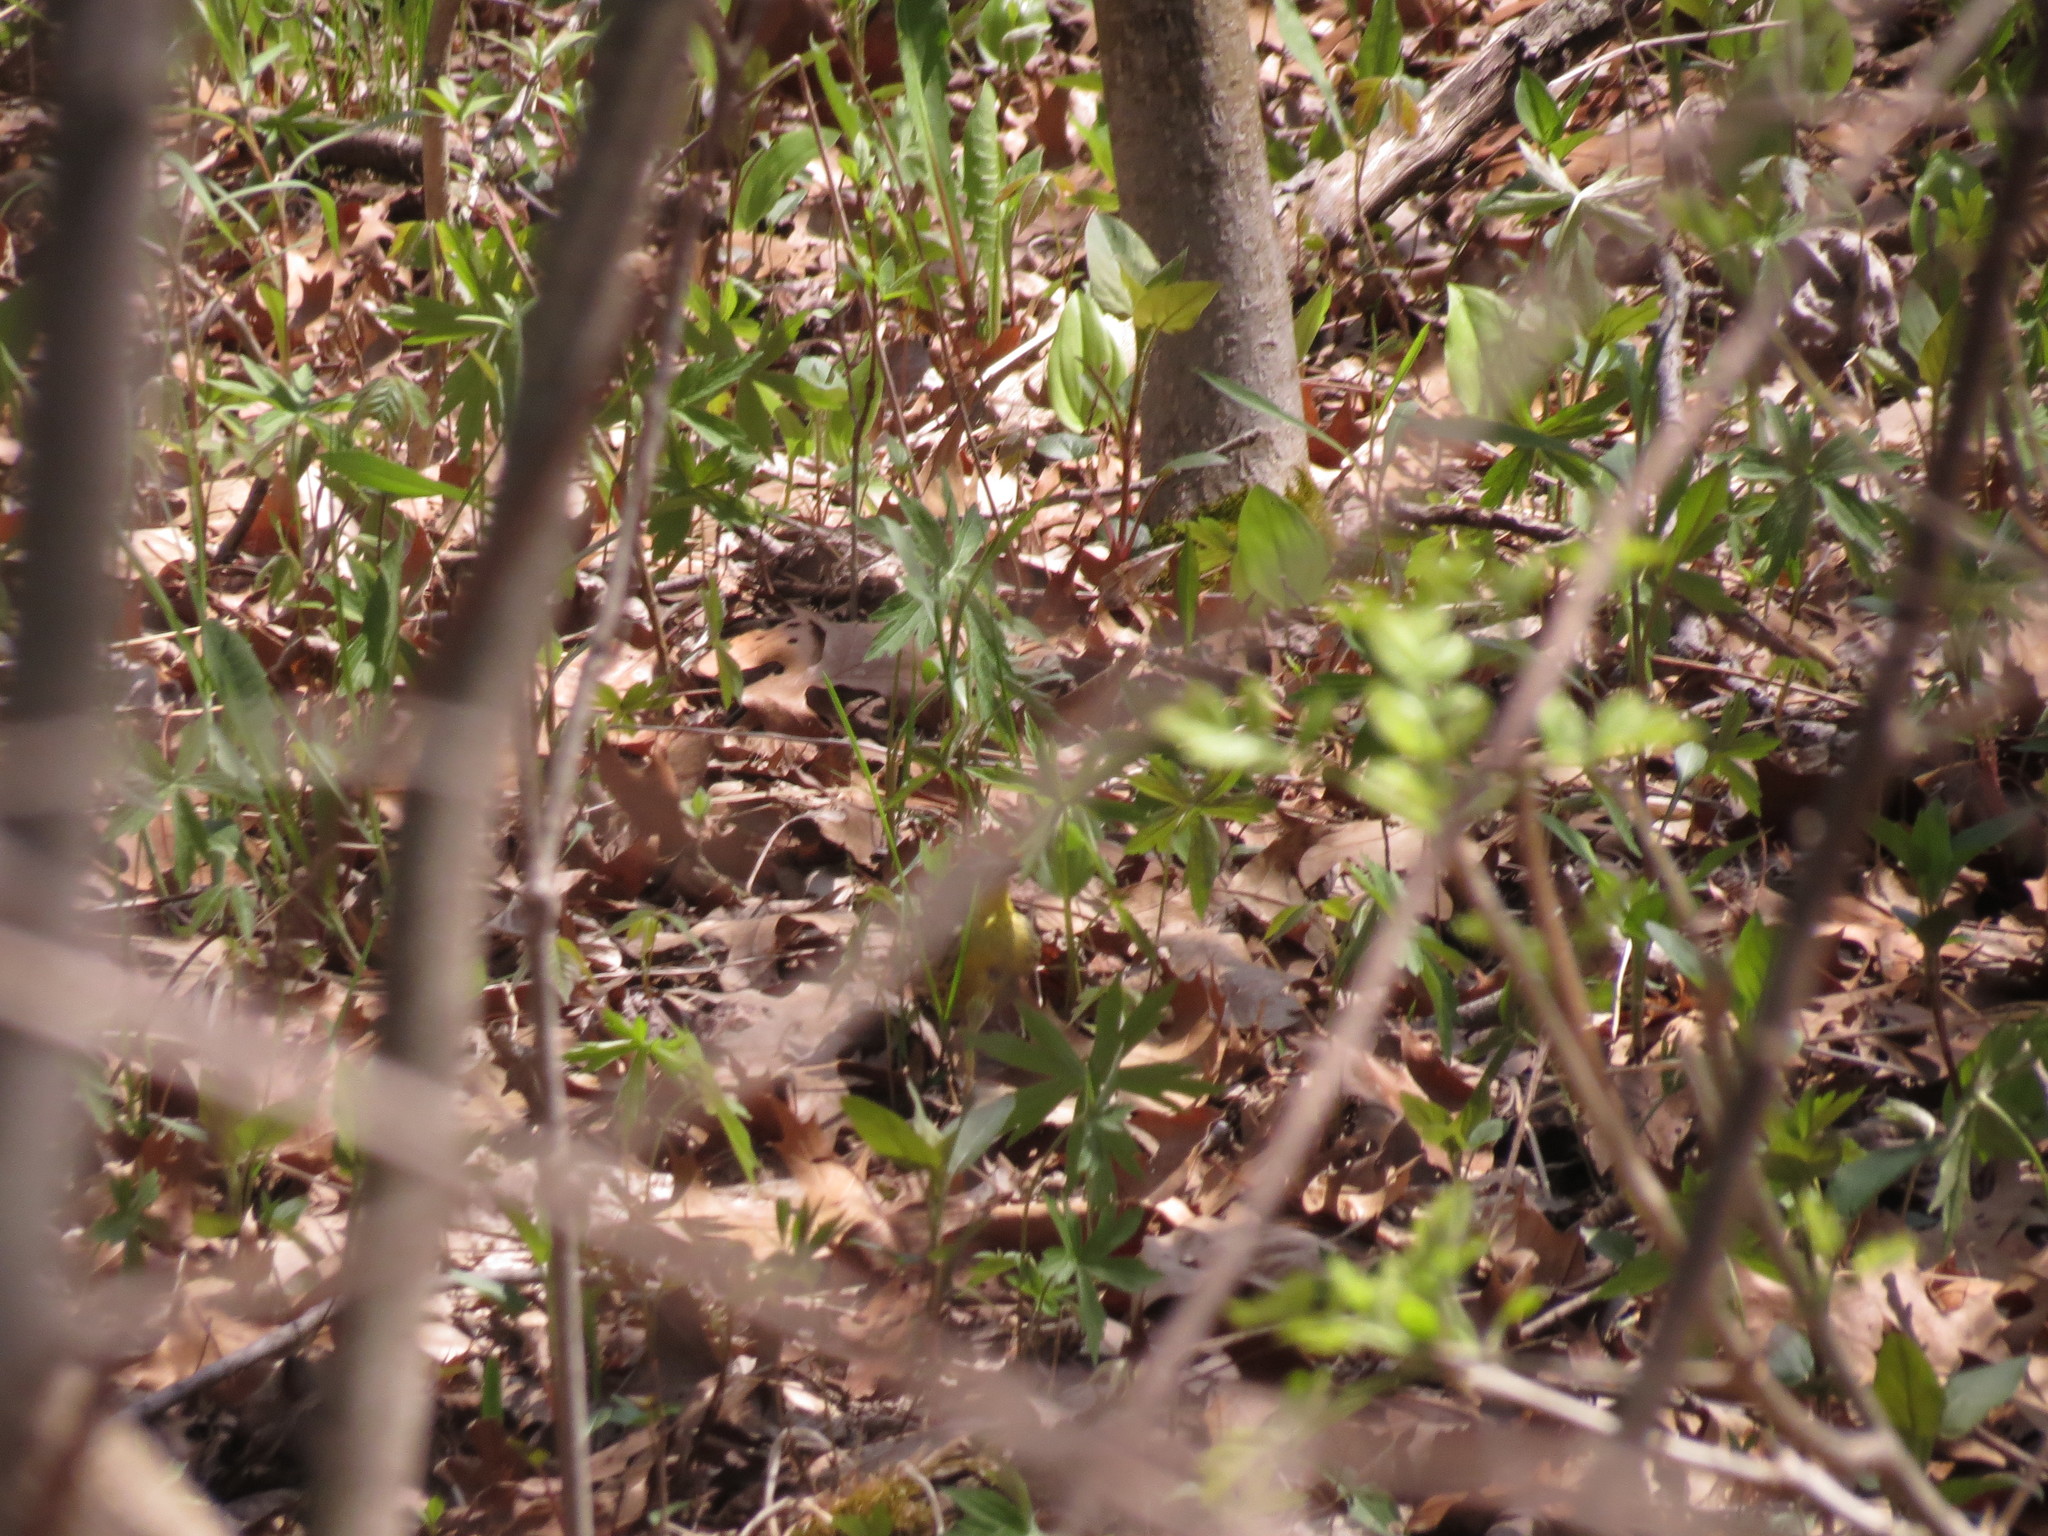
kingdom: Animalia
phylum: Chordata
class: Aves
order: Passeriformes
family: Parulidae
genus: Setophaga
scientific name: Setophaga kirtlandii
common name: Kirtland's warbler
